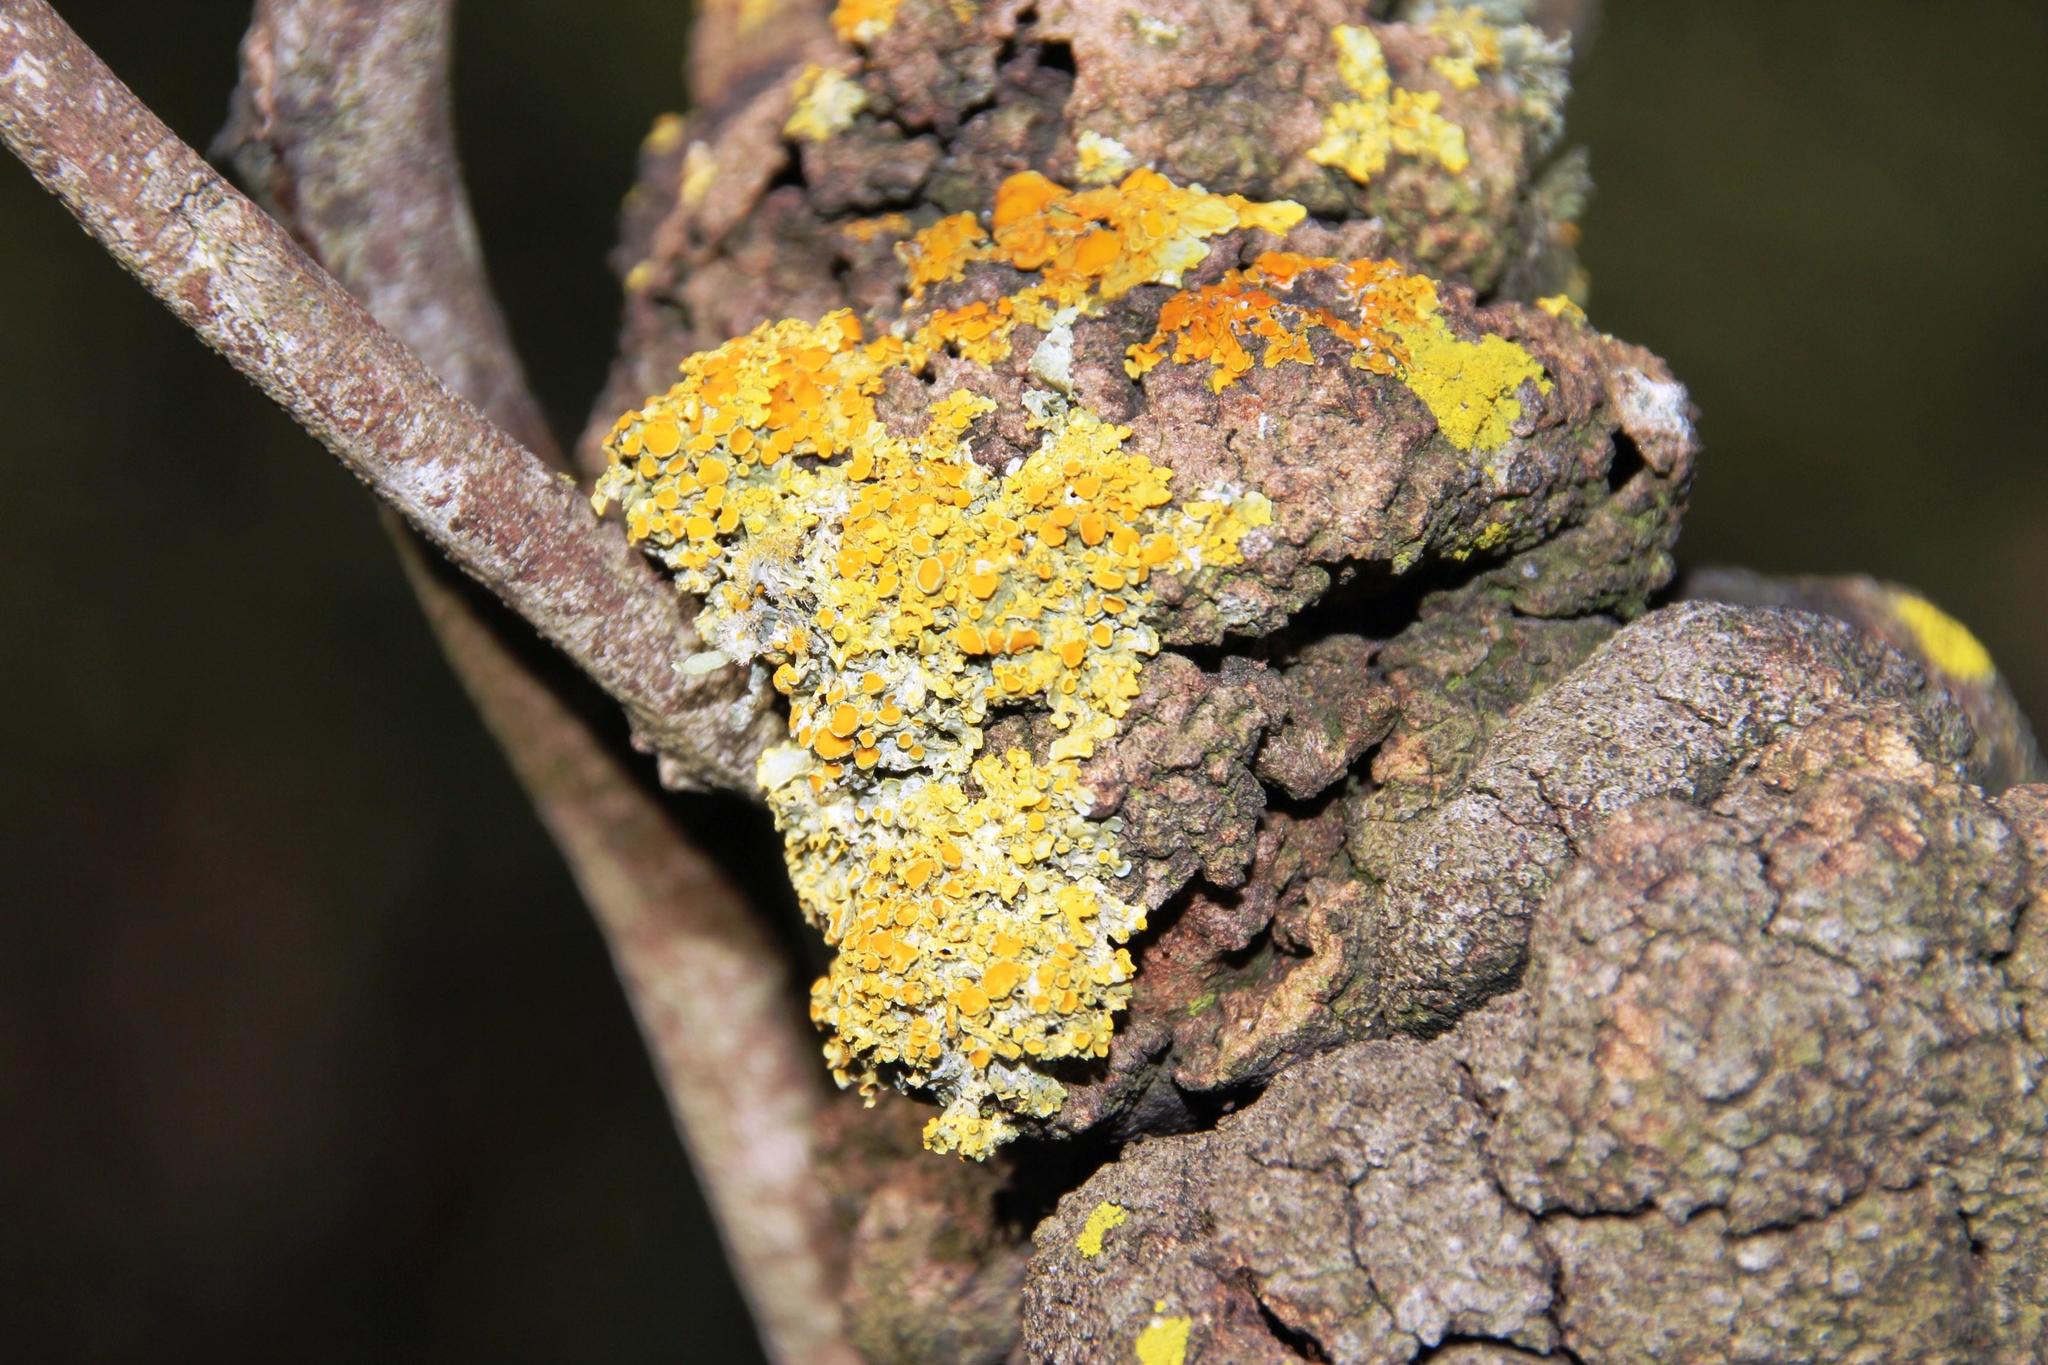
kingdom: Fungi
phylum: Ascomycota
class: Lecanoromycetes
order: Teloschistales
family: Teloschistaceae
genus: Xanthoria
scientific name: Xanthoria parietina
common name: Common orange lichen
